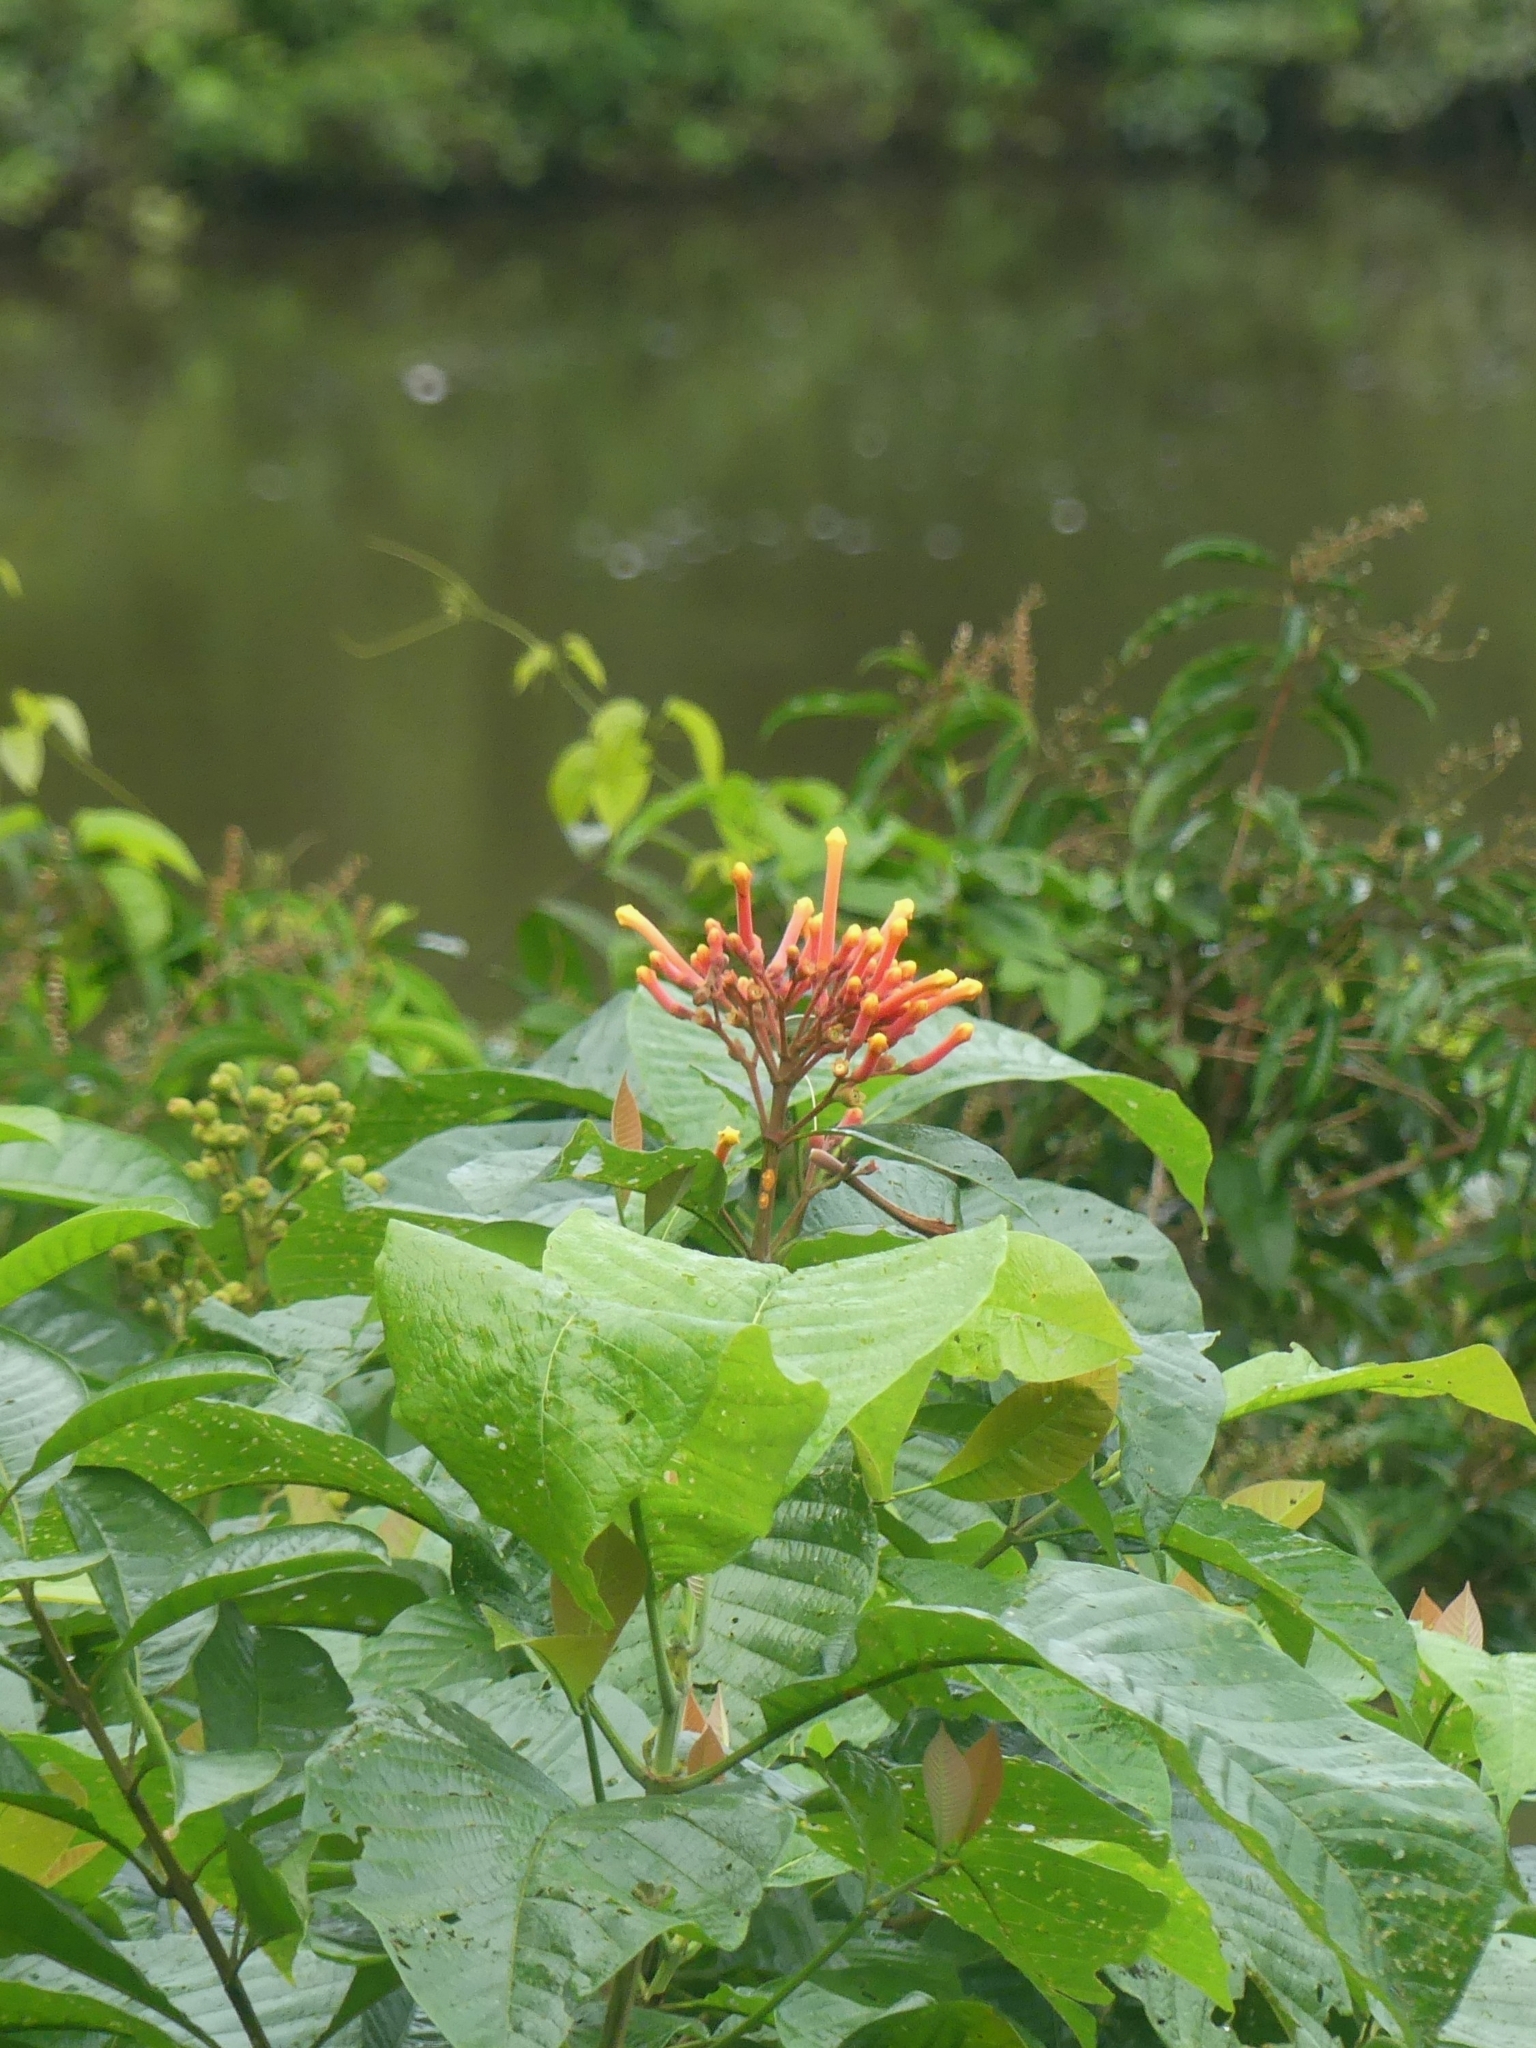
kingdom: Plantae
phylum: Tracheophyta
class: Magnoliopsida
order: Gentianales
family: Rubiaceae
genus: Isertia
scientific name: Isertia coccinea
